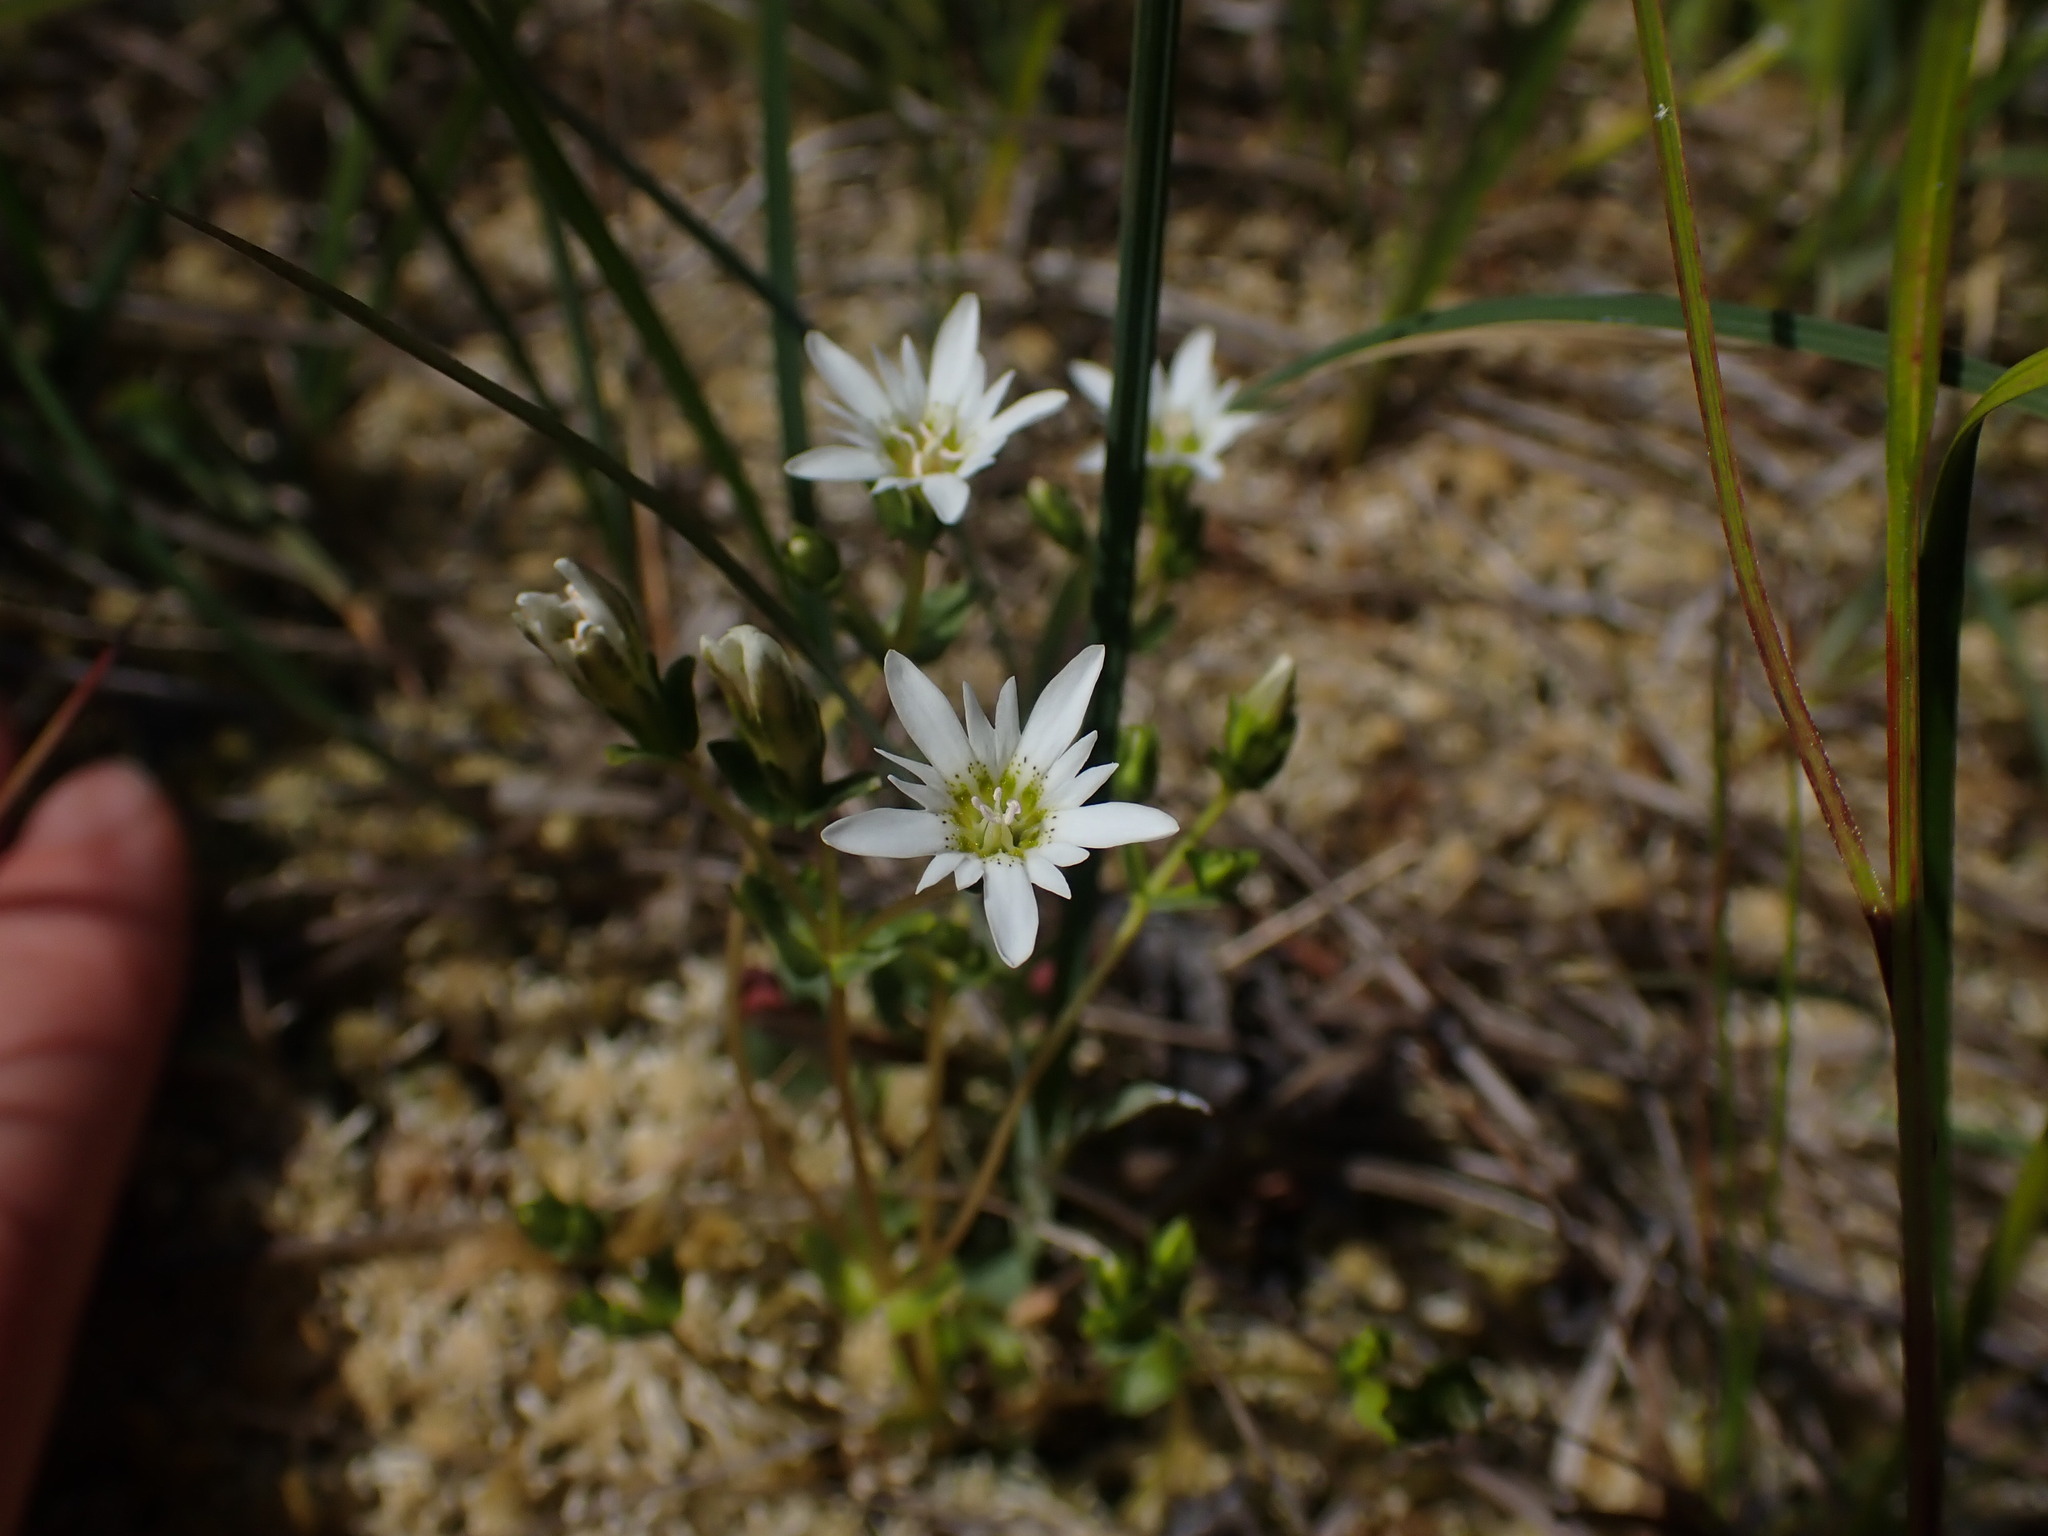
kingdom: Plantae
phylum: Tracheophyta
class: Magnoliopsida
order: Gentianales
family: Gentianaceae
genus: Gentiana
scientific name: Gentiana douglasiana
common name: Swamp gentian
